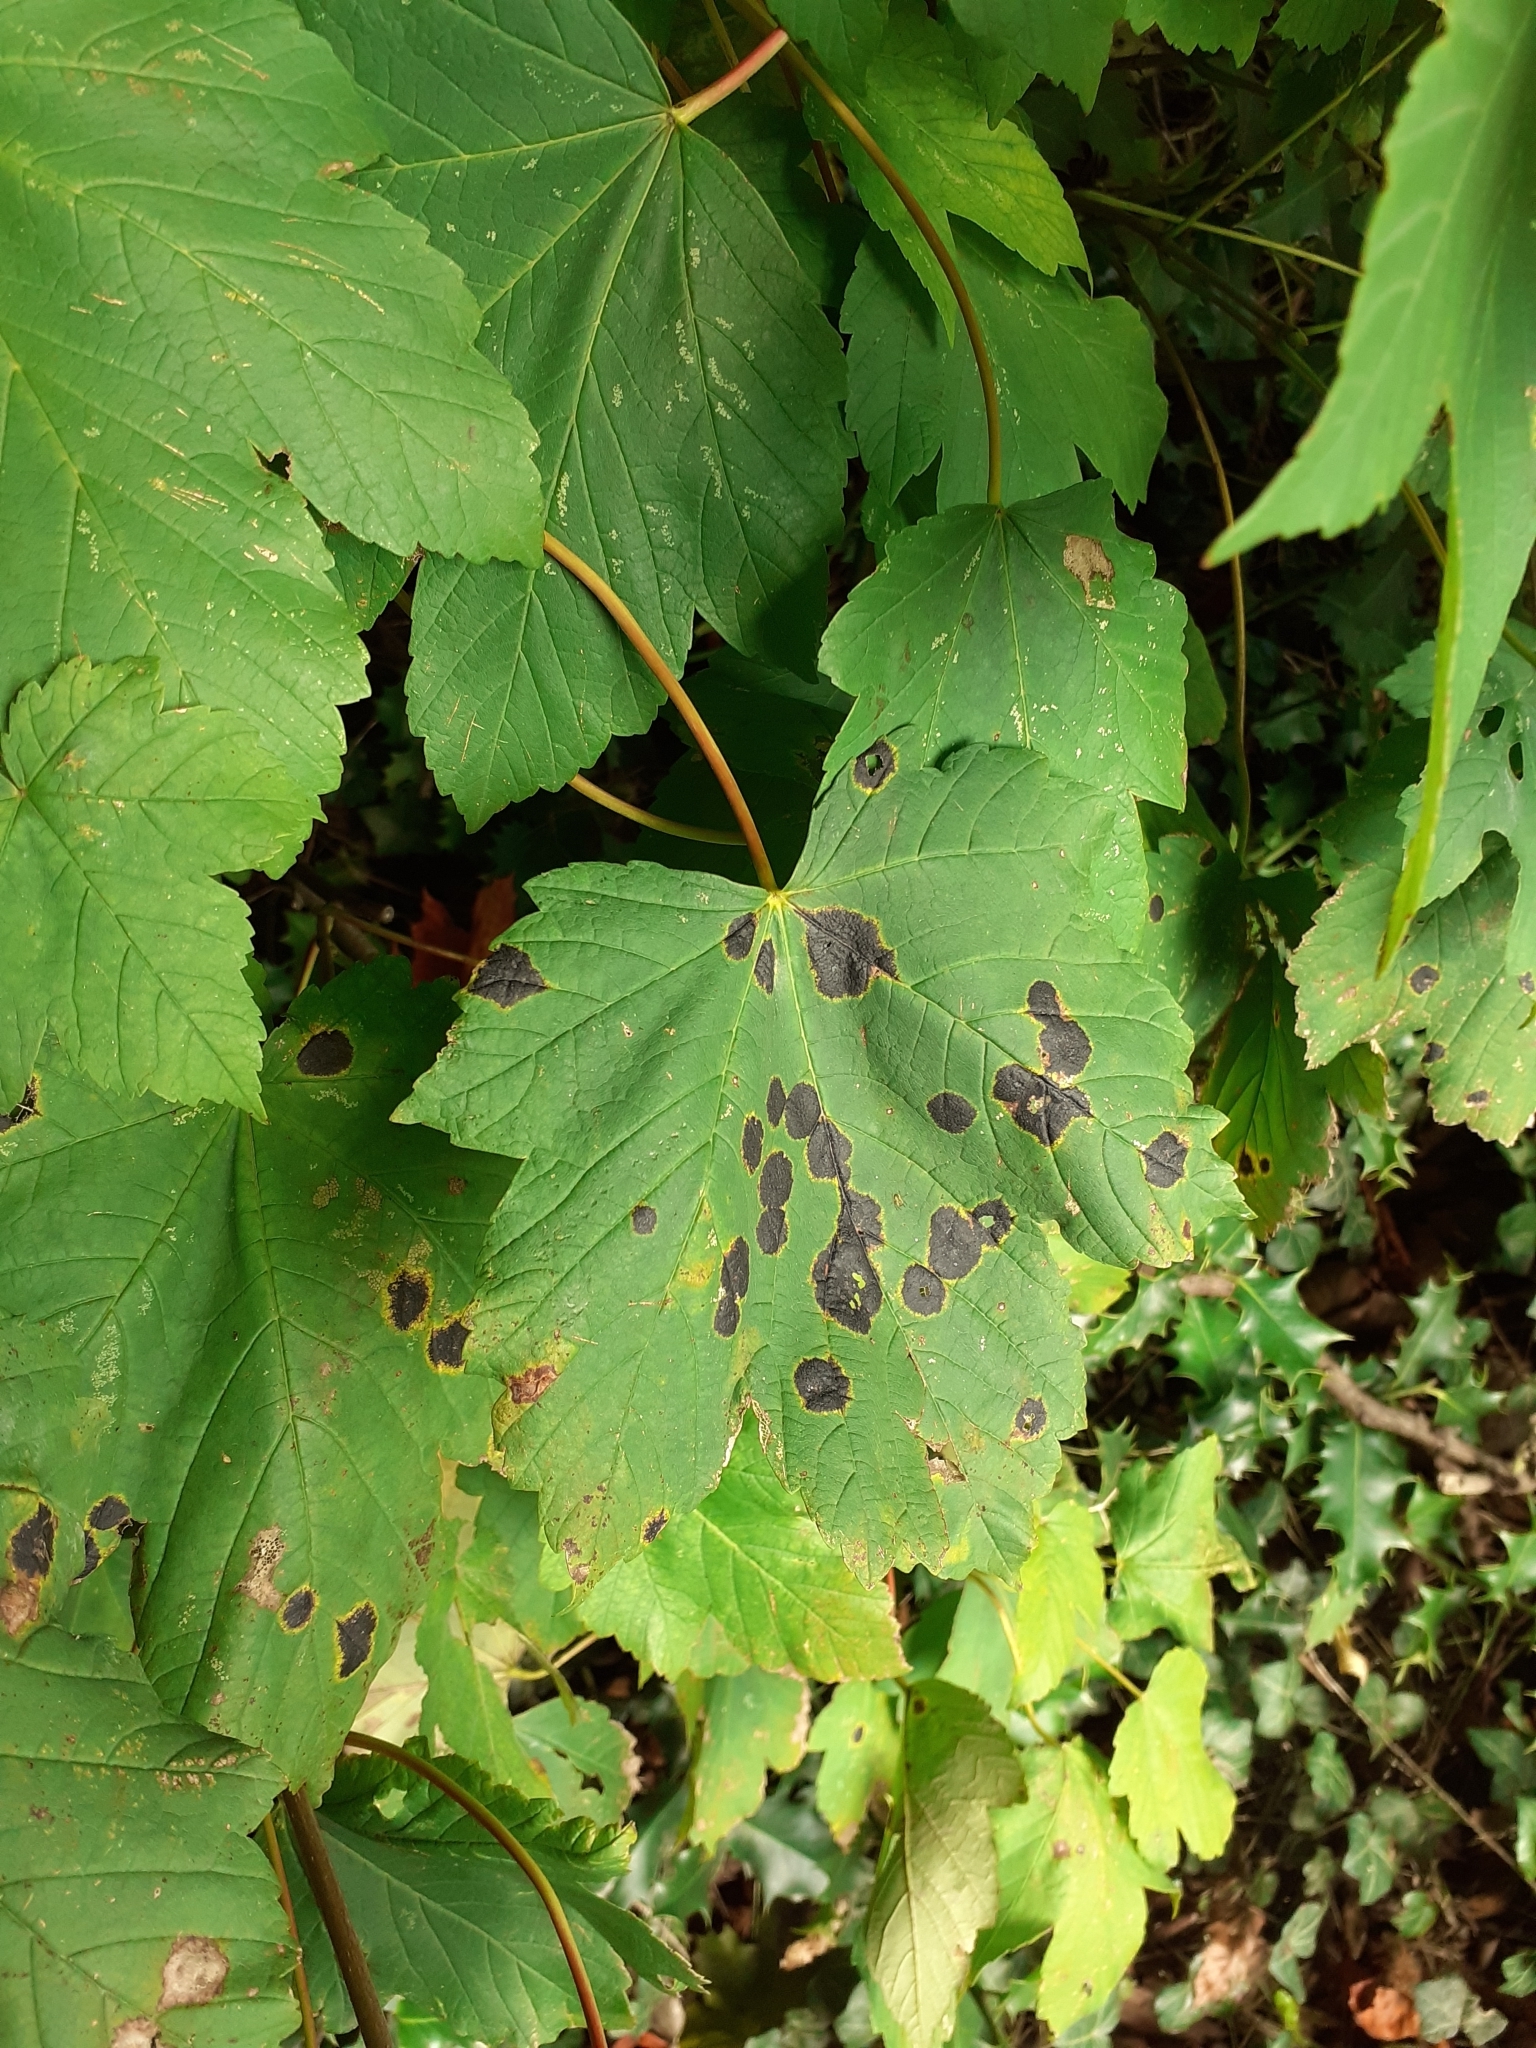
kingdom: Fungi
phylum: Ascomycota
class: Leotiomycetes
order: Rhytismatales
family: Rhytismataceae
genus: Rhytisma
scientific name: Rhytisma acerinum
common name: European tar spot
